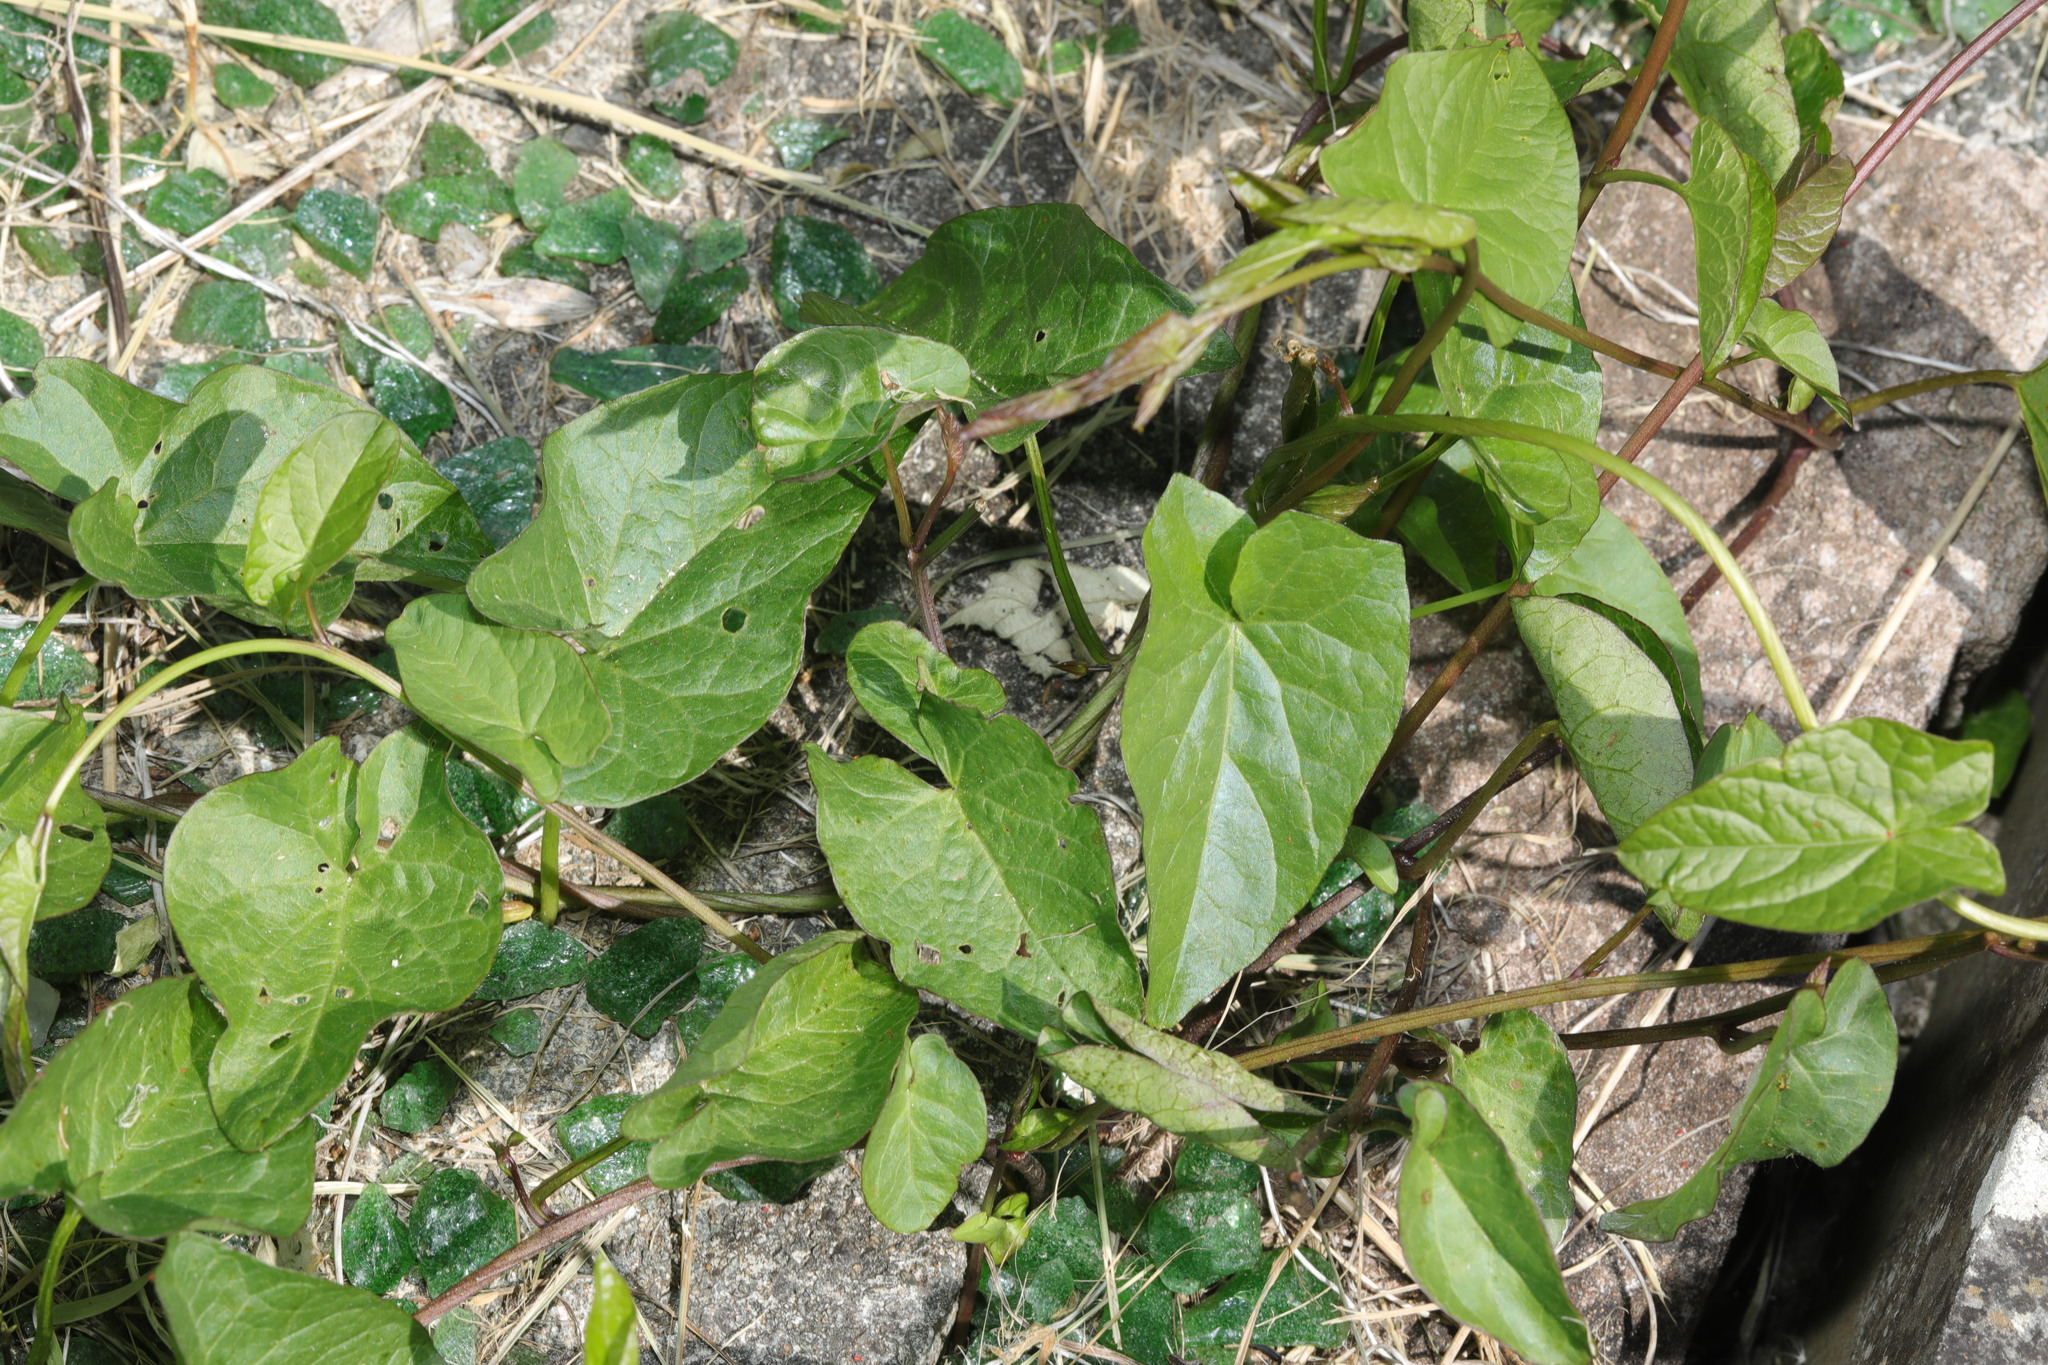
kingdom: Plantae
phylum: Tracheophyta
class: Magnoliopsida
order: Solanales
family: Convolvulaceae
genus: Calystegia
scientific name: Calystegia
